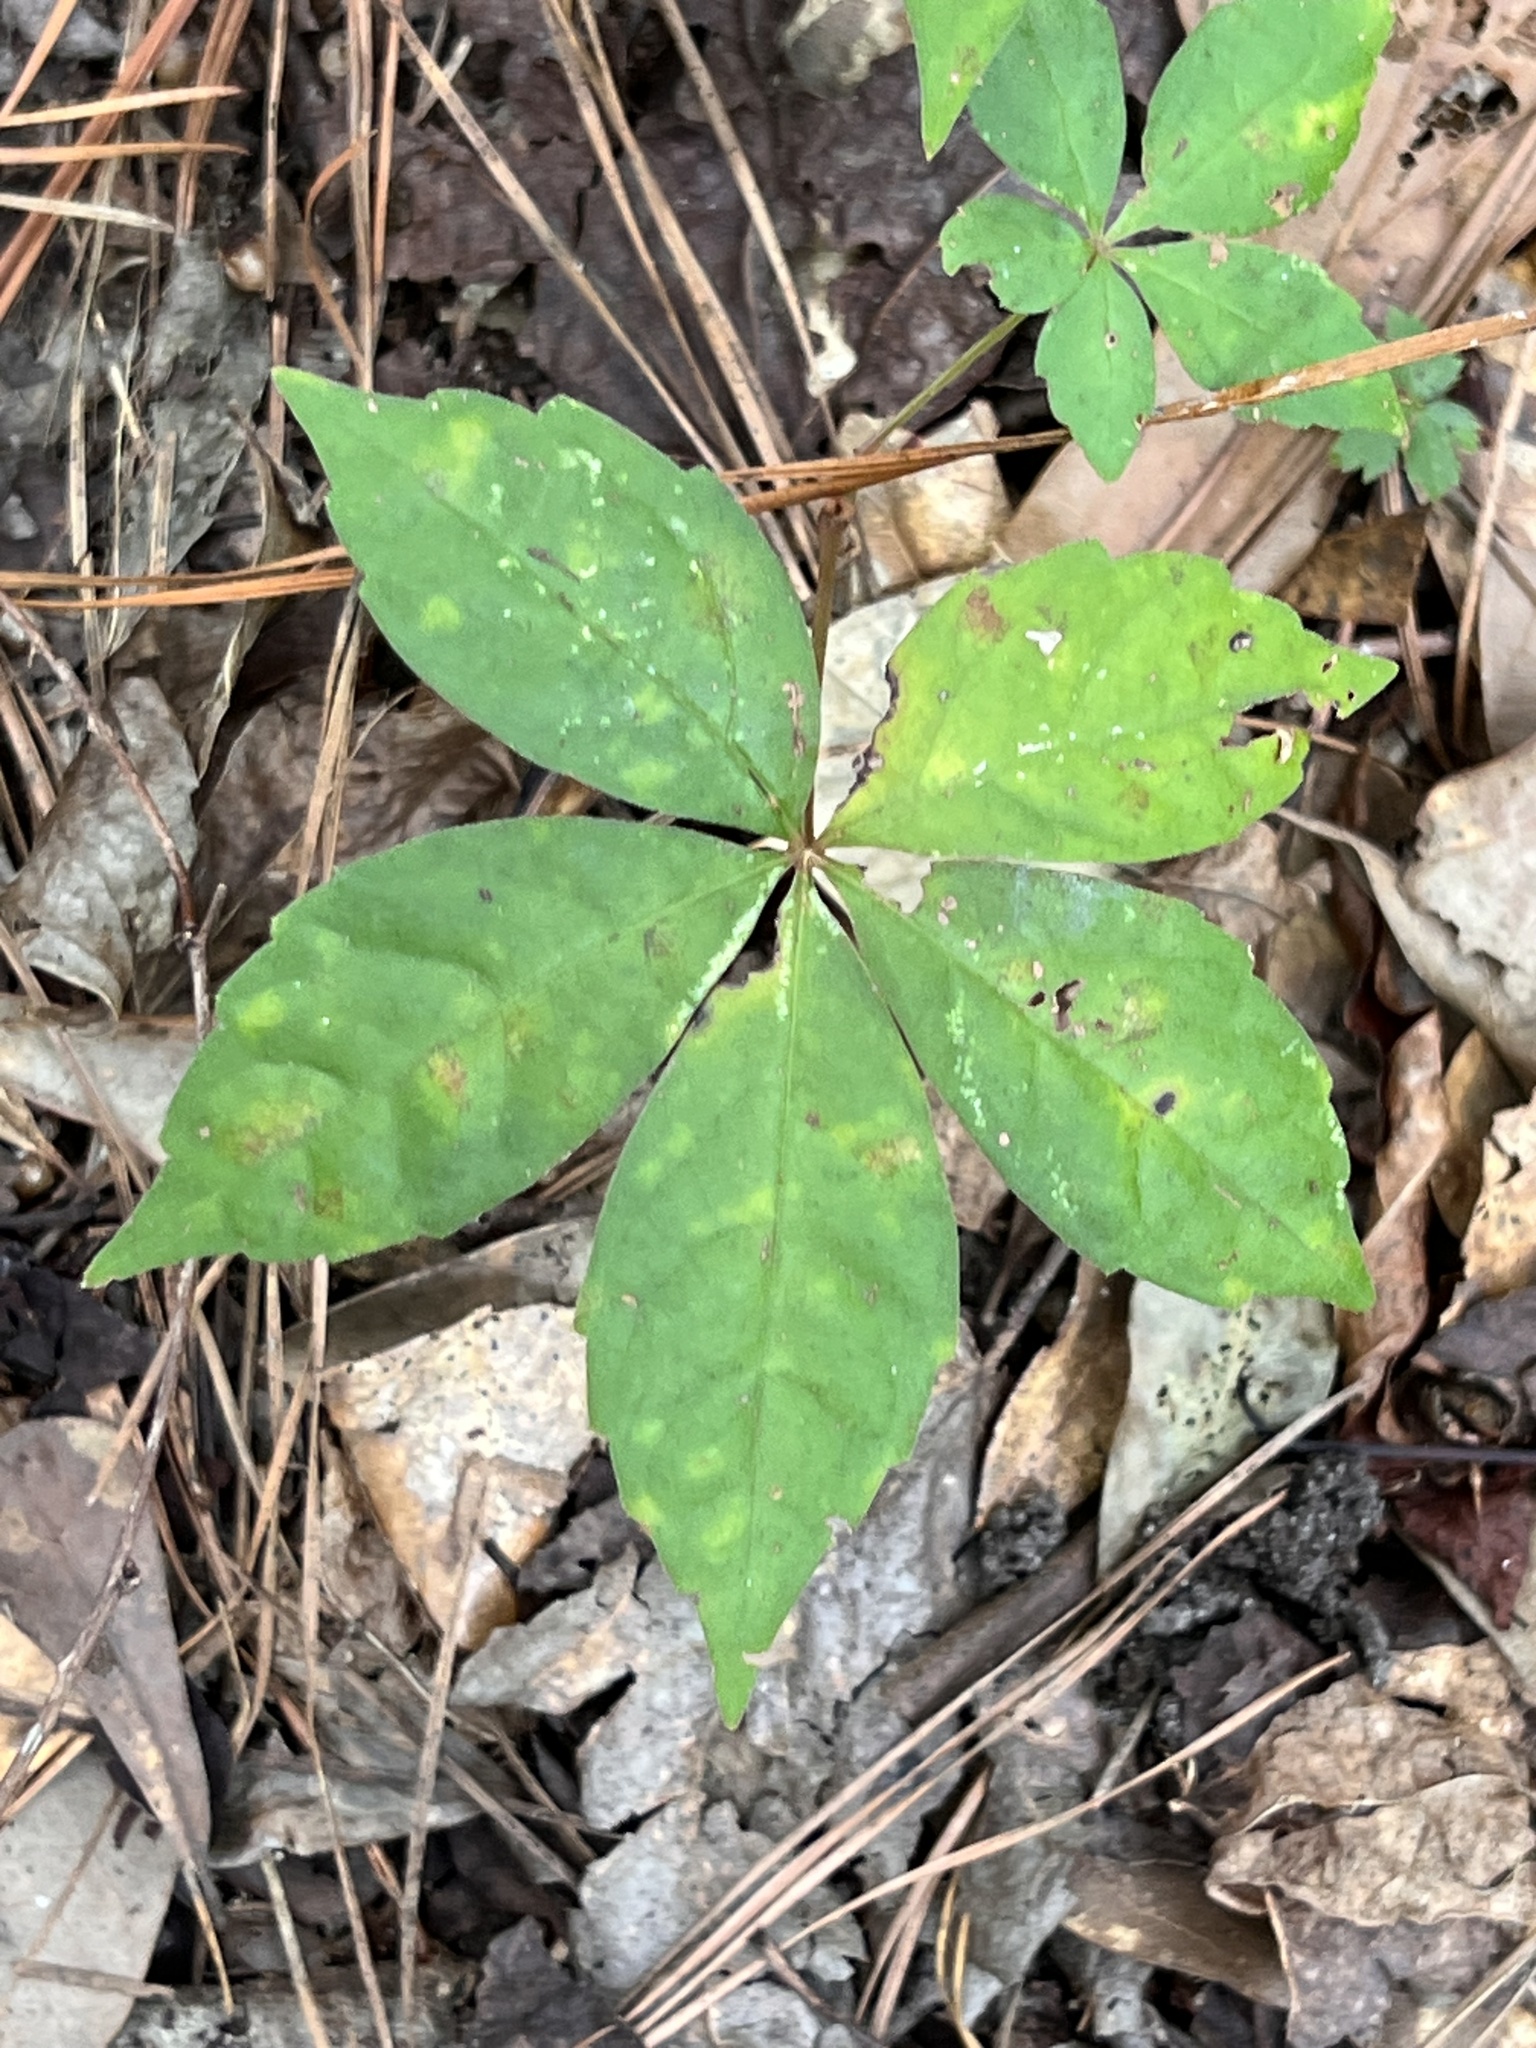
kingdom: Plantae
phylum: Tracheophyta
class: Magnoliopsida
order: Vitales
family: Vitaceae
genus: Parthenocissus
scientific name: Parthenocissus quinquefolia
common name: Virginia-creeper
